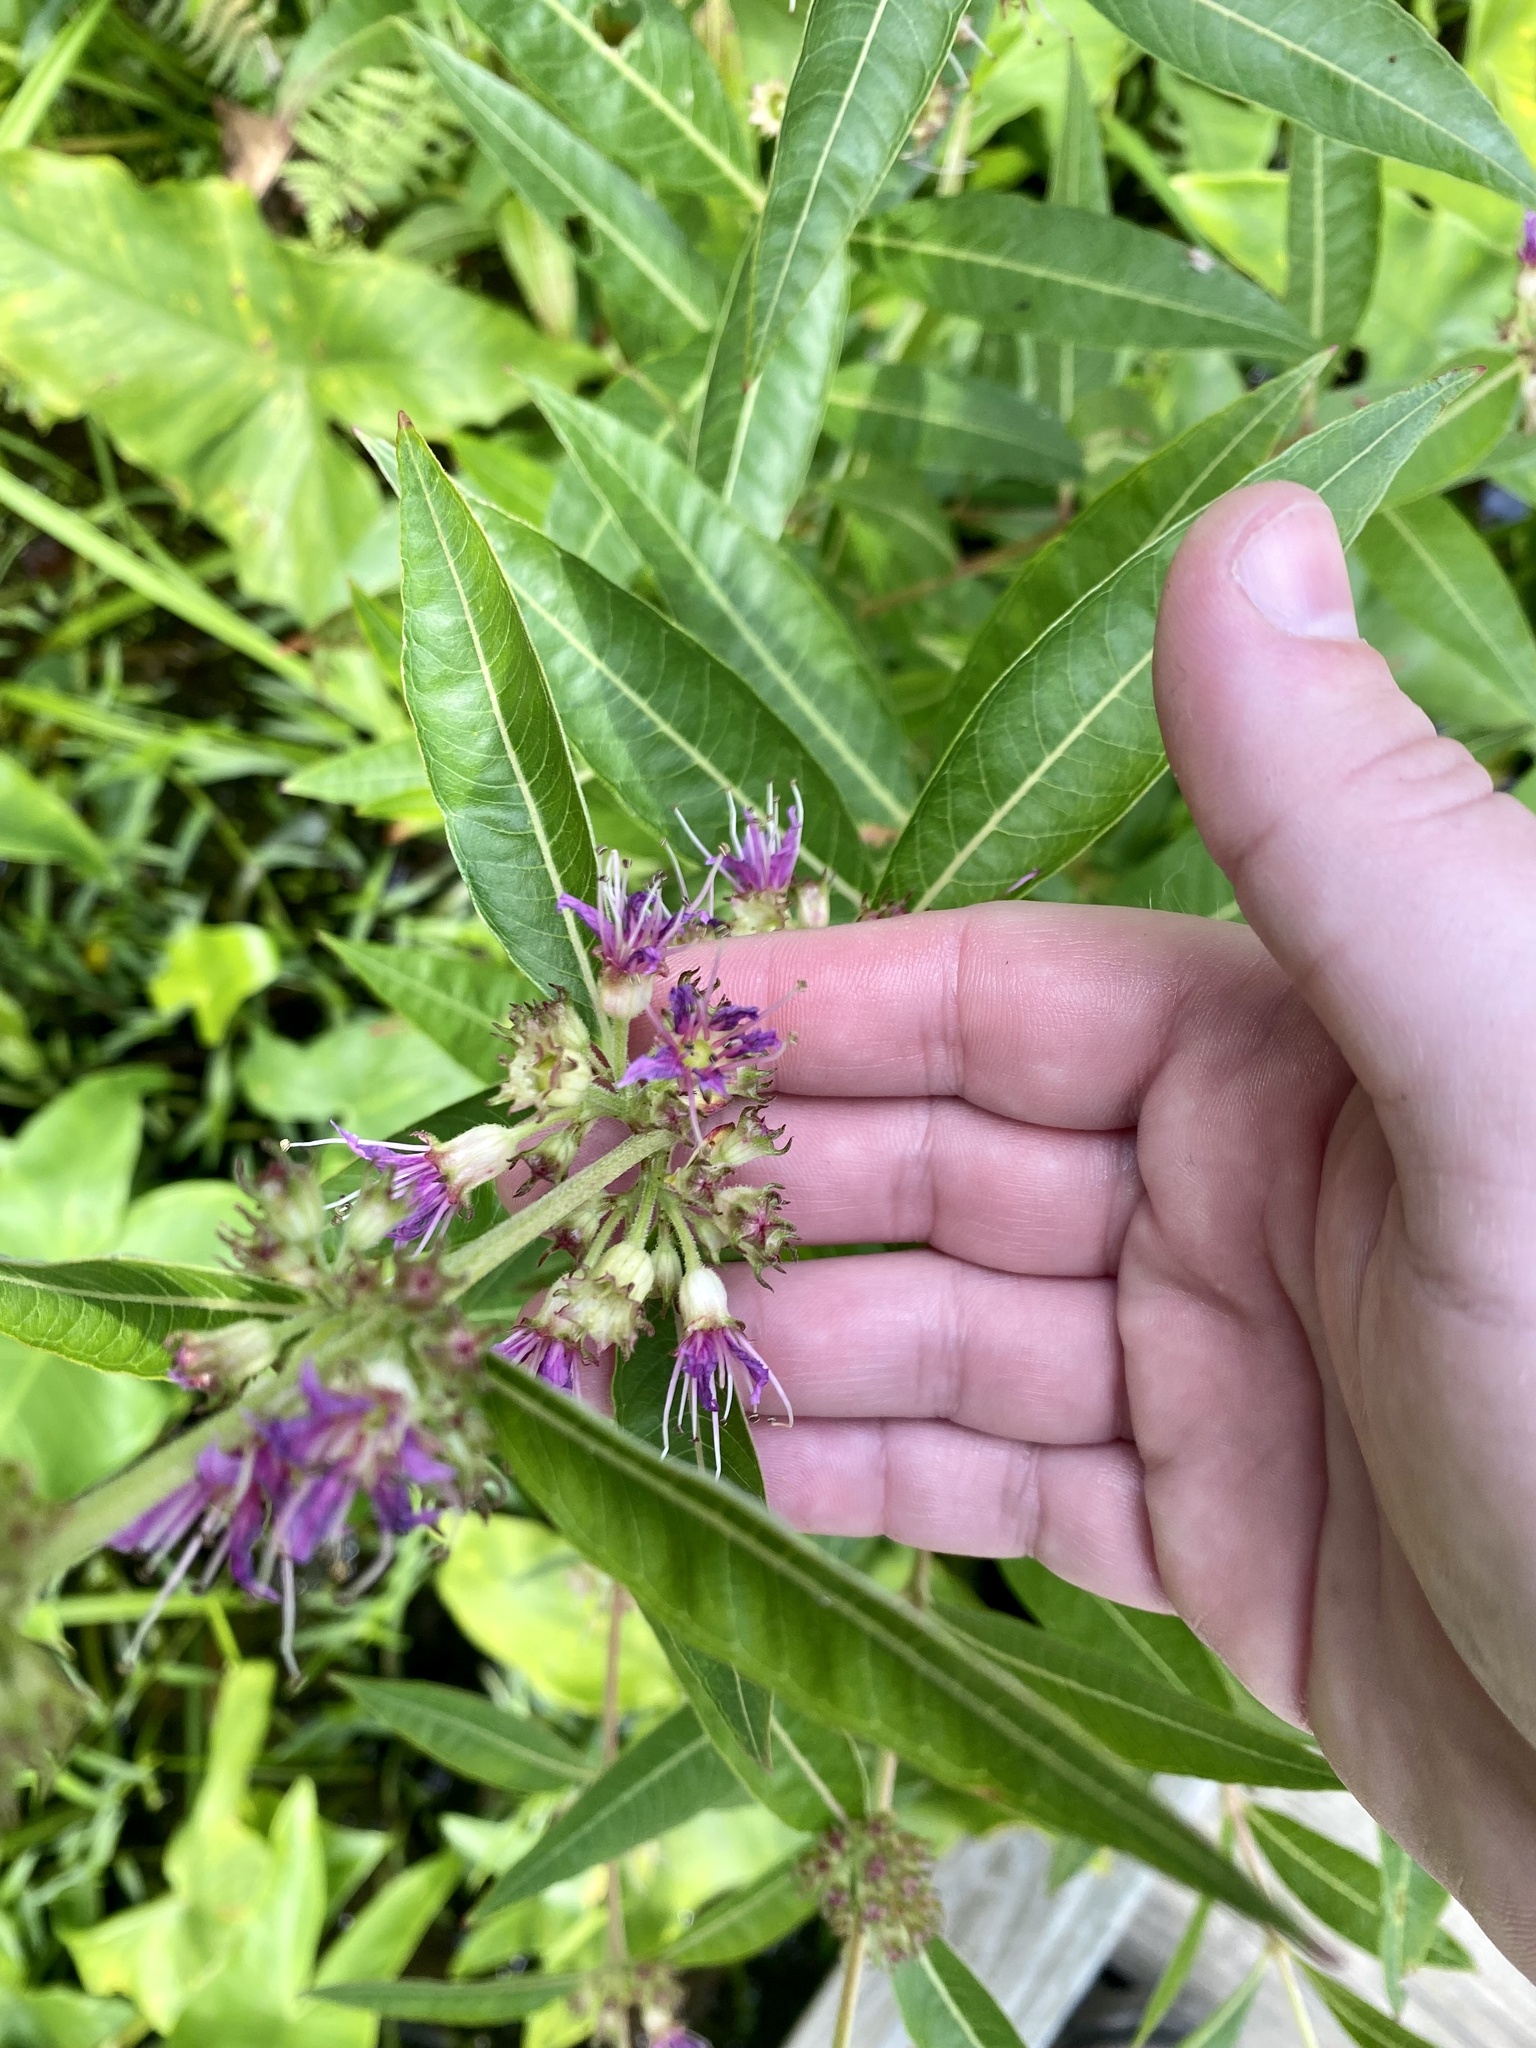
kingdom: Plantae
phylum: Tracheophyta
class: Magnoliopsida
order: Myrtales
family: Lythraceae
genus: Decodon
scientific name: Decodon verticillatus
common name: Hairy swamp loosestrife
